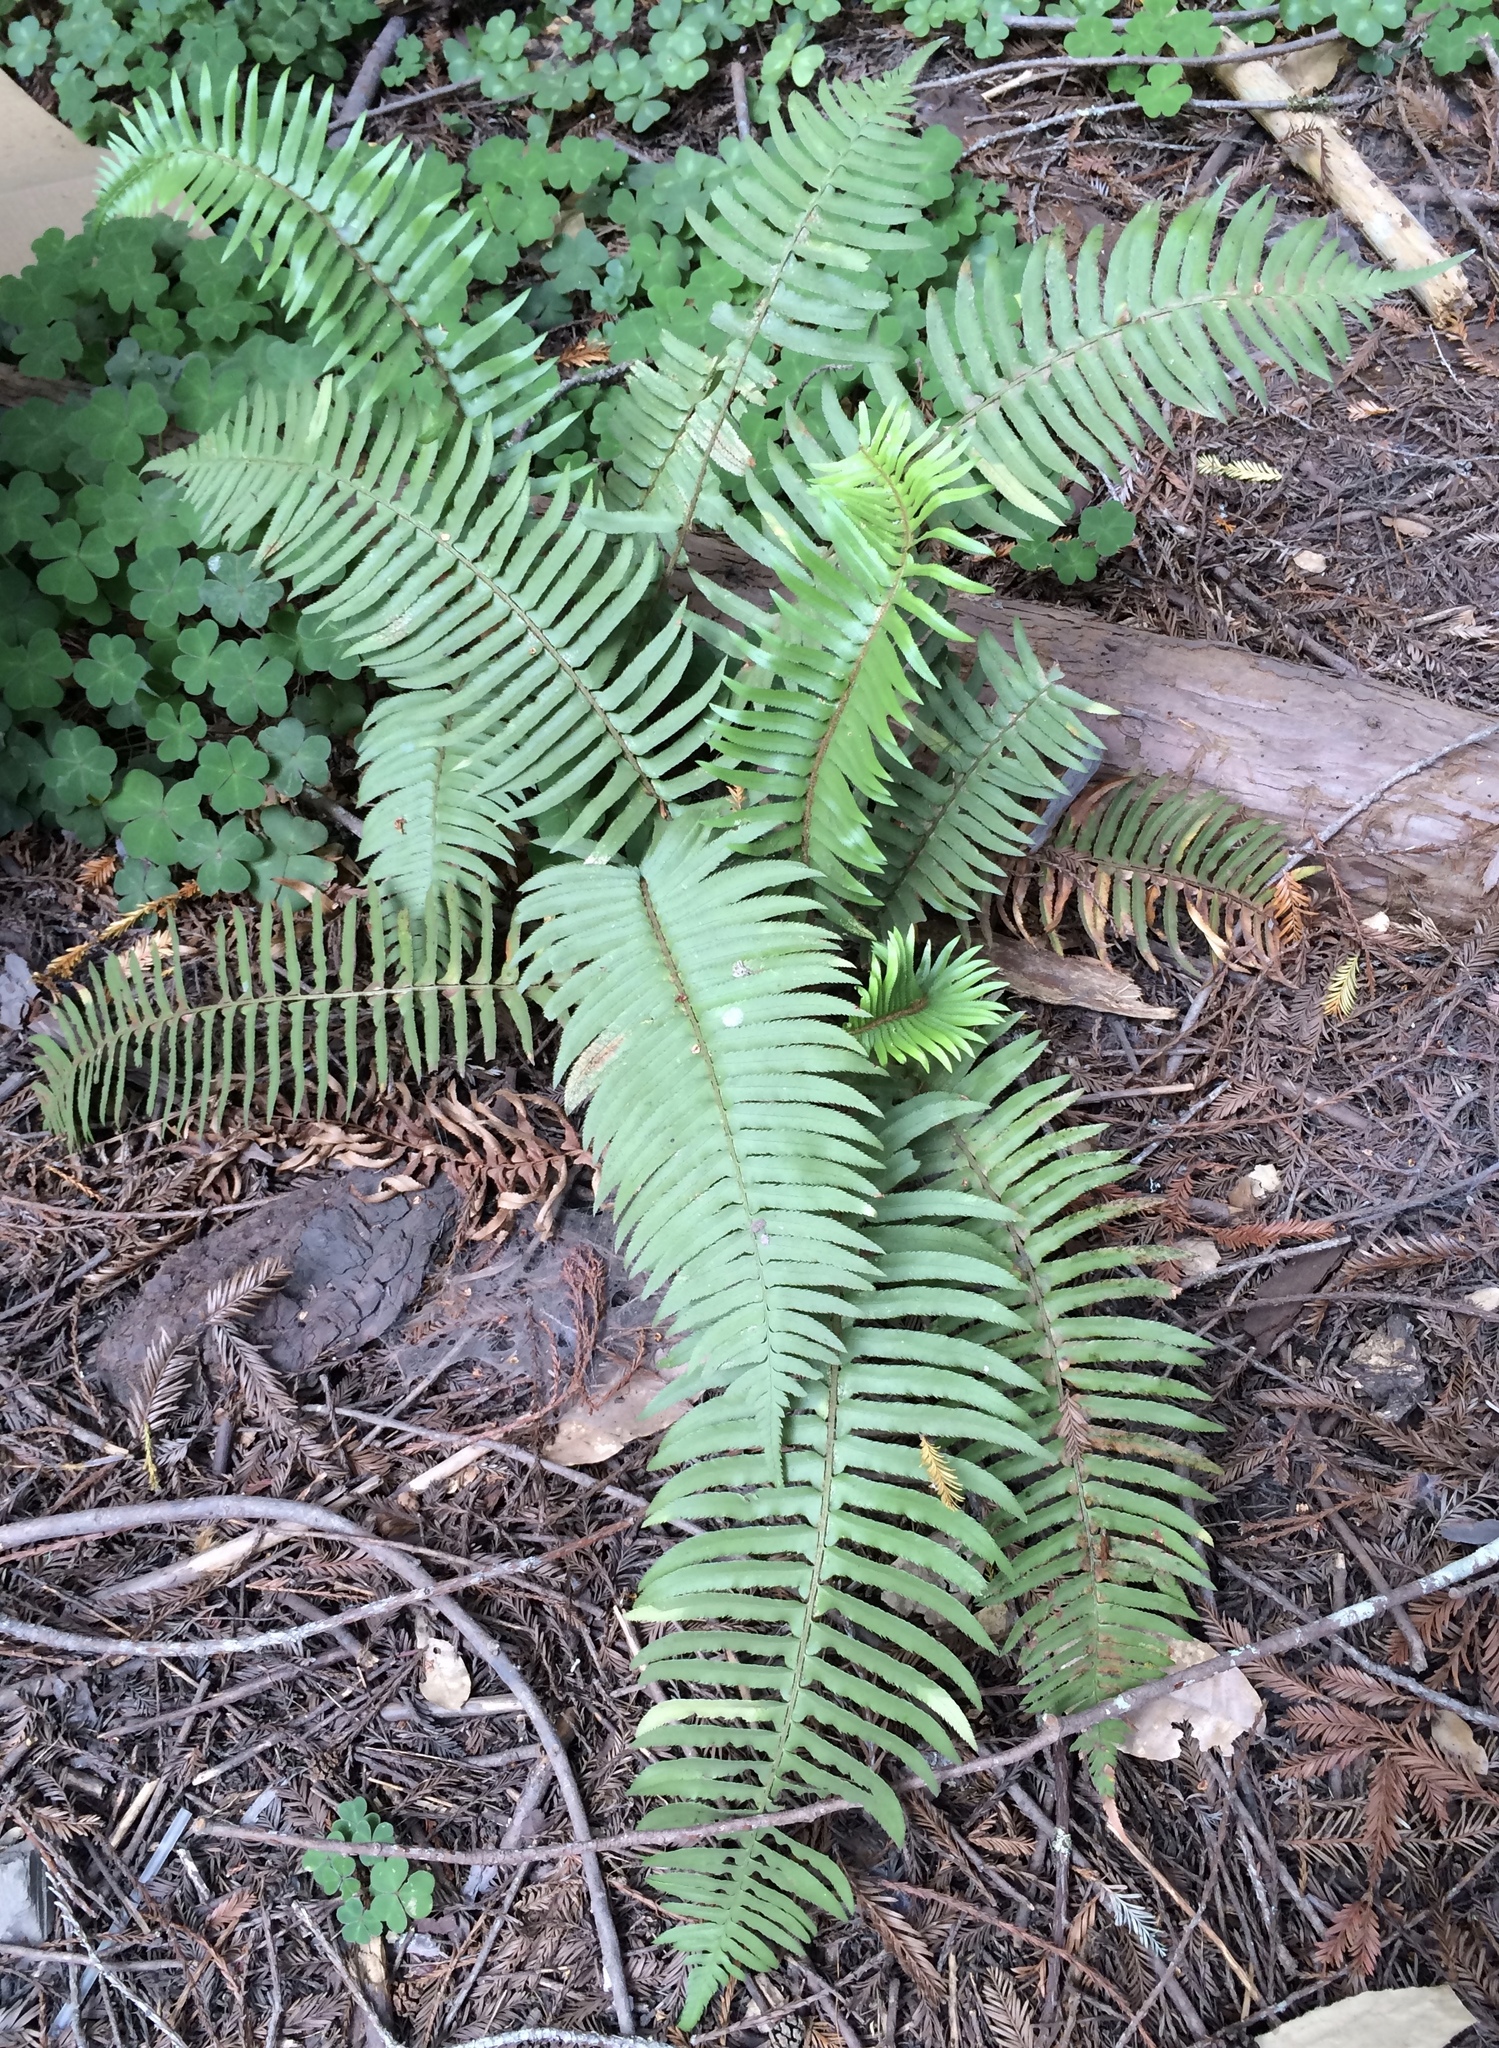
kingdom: Plantae
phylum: Tracheophyta
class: Polypodiopsida
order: Polypodiales
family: Dryopteridaceae
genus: Polystichum
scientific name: Polystichum munitum
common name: Western sword-fern
